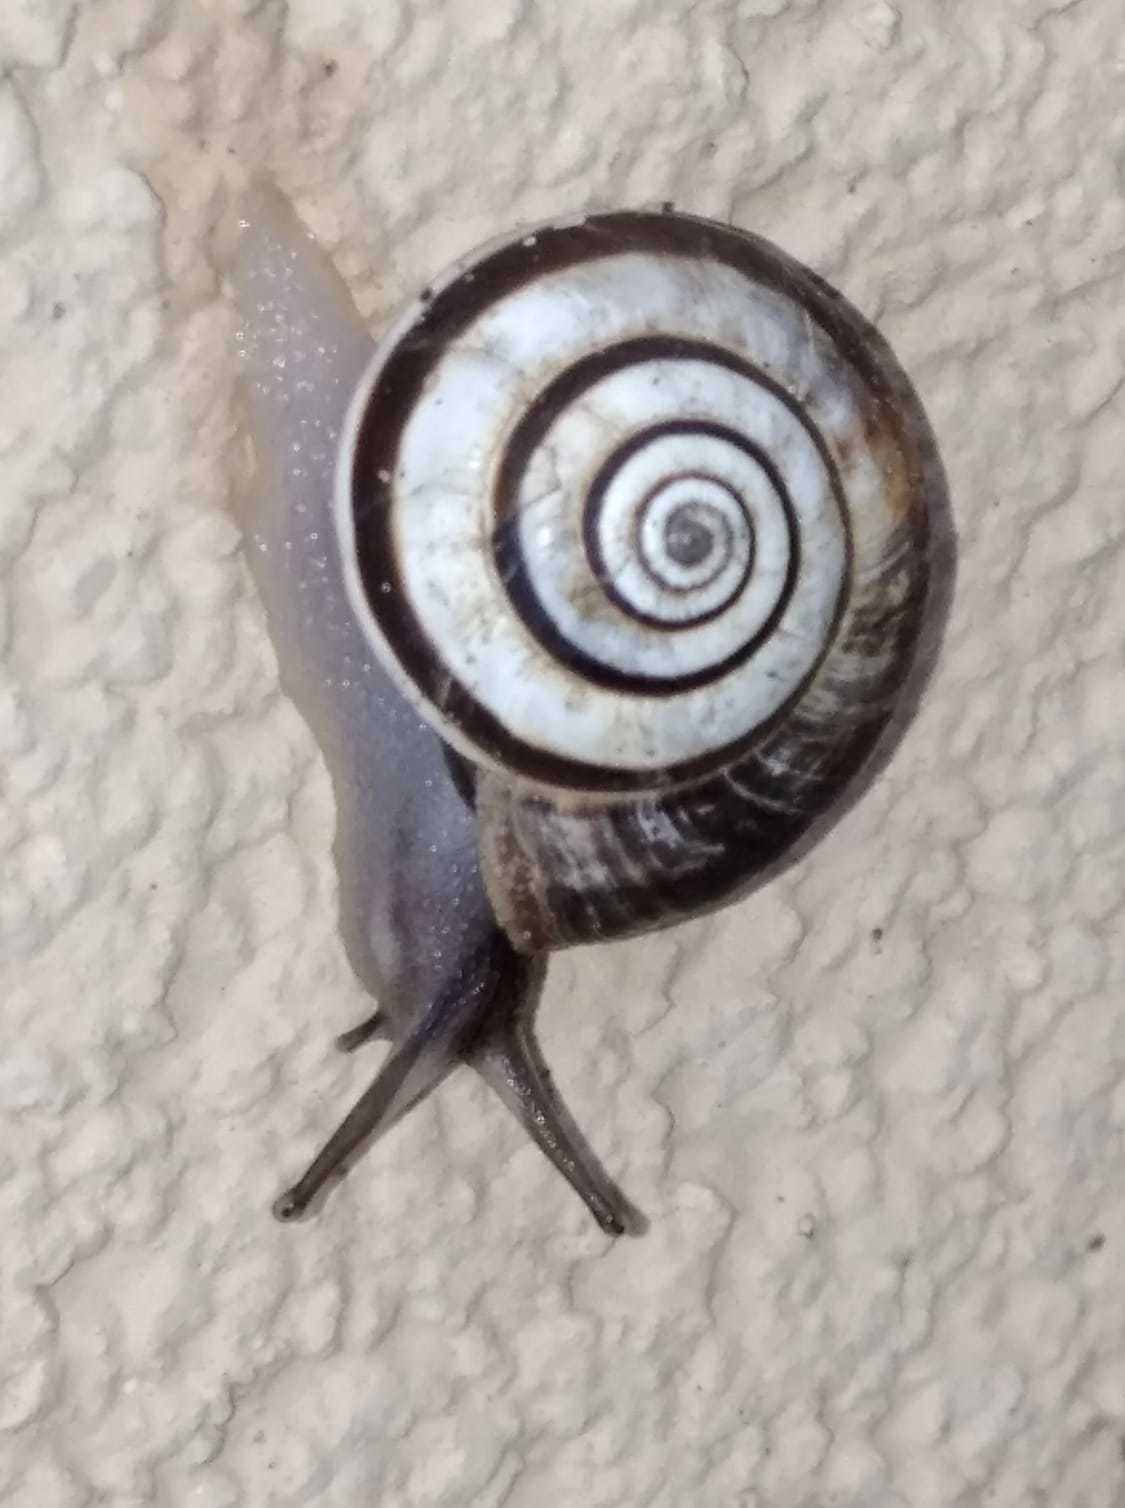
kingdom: Animalia
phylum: Mollusca
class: Gastropoda
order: Stylommatophora
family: Geomitridae
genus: Cernuella
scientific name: Cernuella virgata
